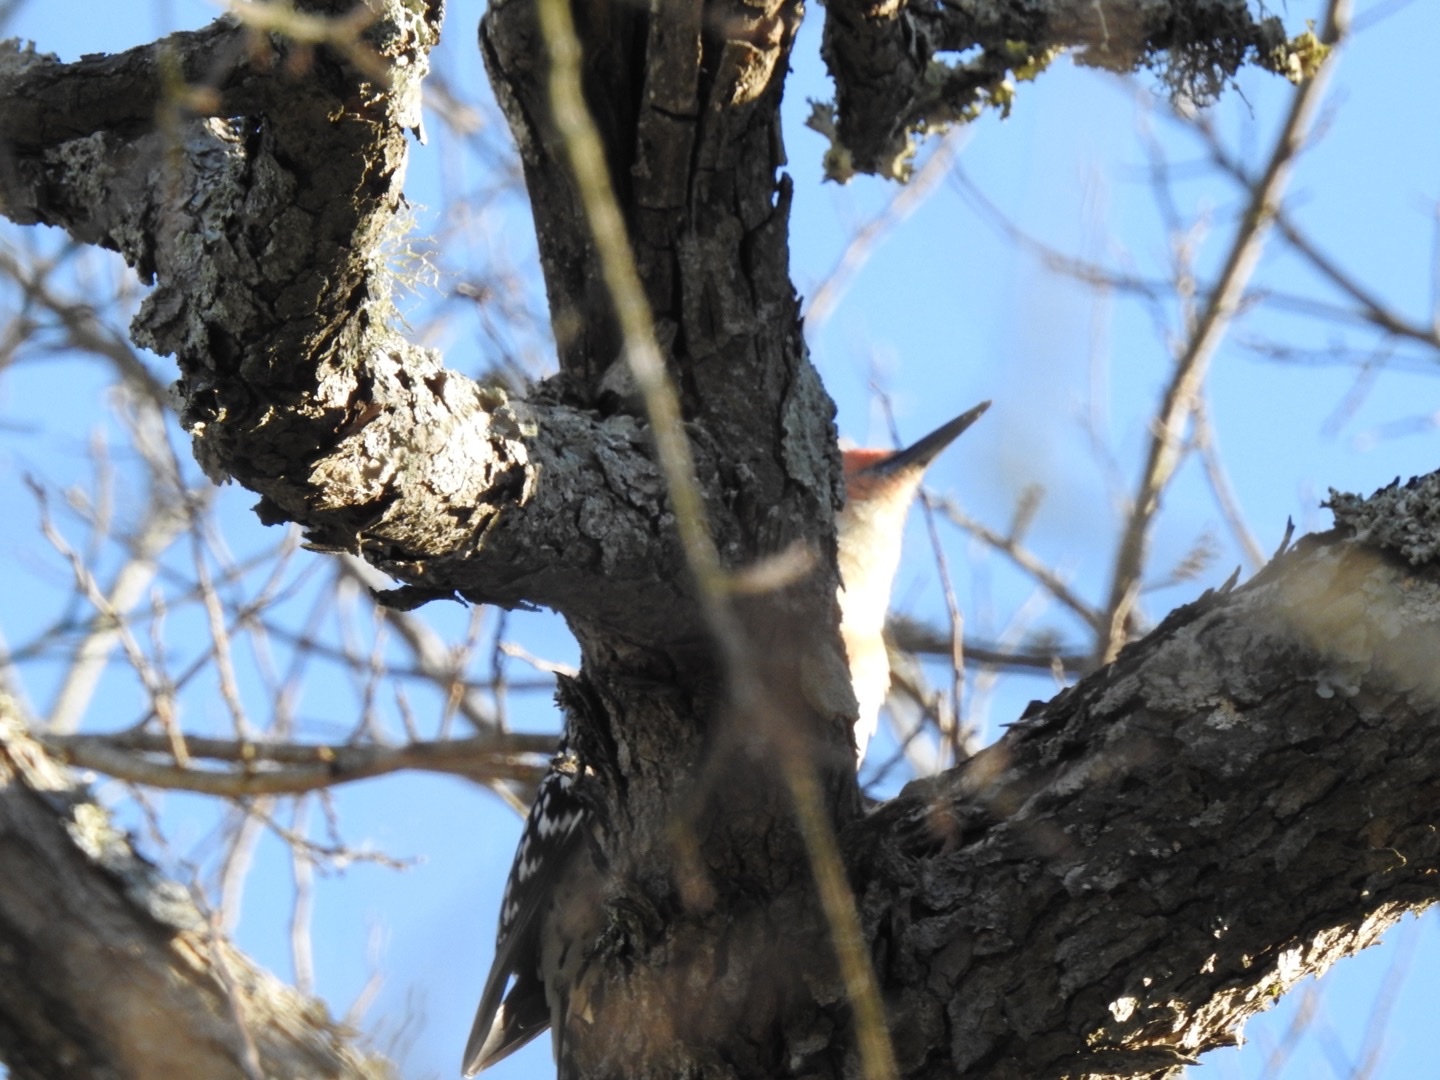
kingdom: Animalia
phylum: Chordata
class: Aves
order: Piciformes
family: Picidae
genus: Melanerpes
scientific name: Melanerpes carolinus
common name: Red-bellied woodpecker
